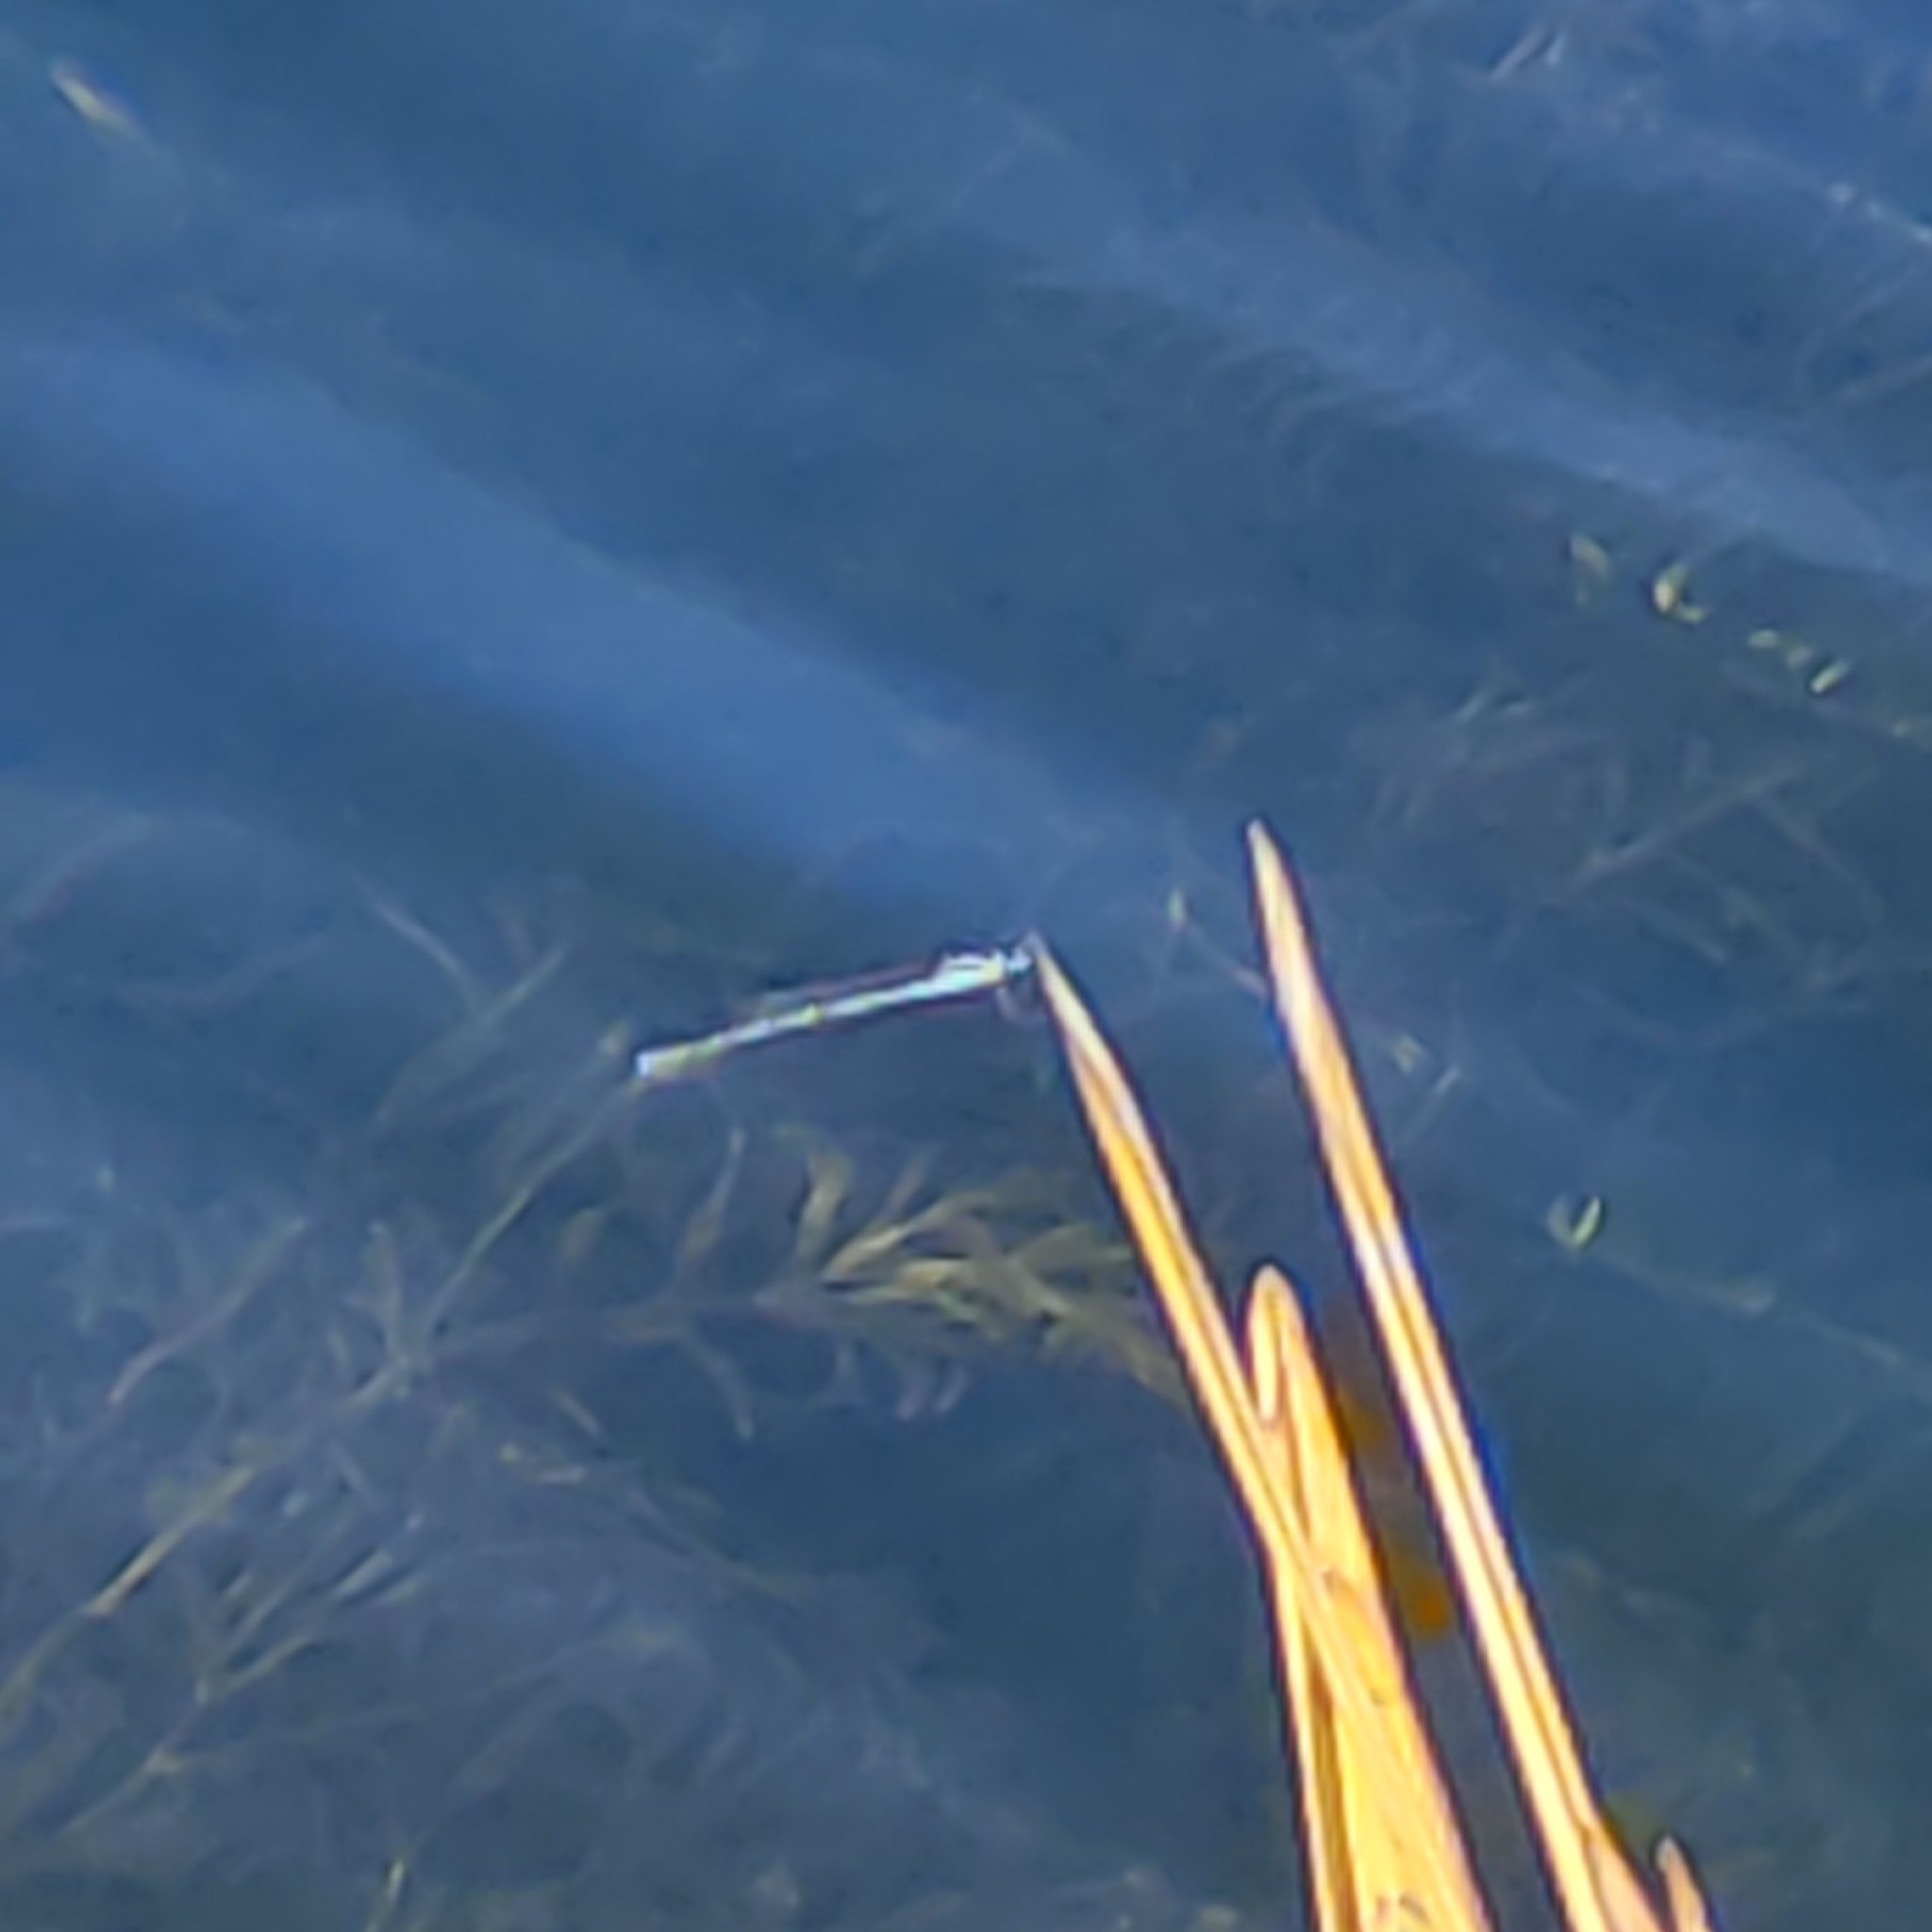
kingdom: Animalia
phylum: Arthropoda
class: Insecta
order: Odonata
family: Lestidae
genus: Austrolestes
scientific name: Austrolestes colensonis
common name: Blue damselfly
